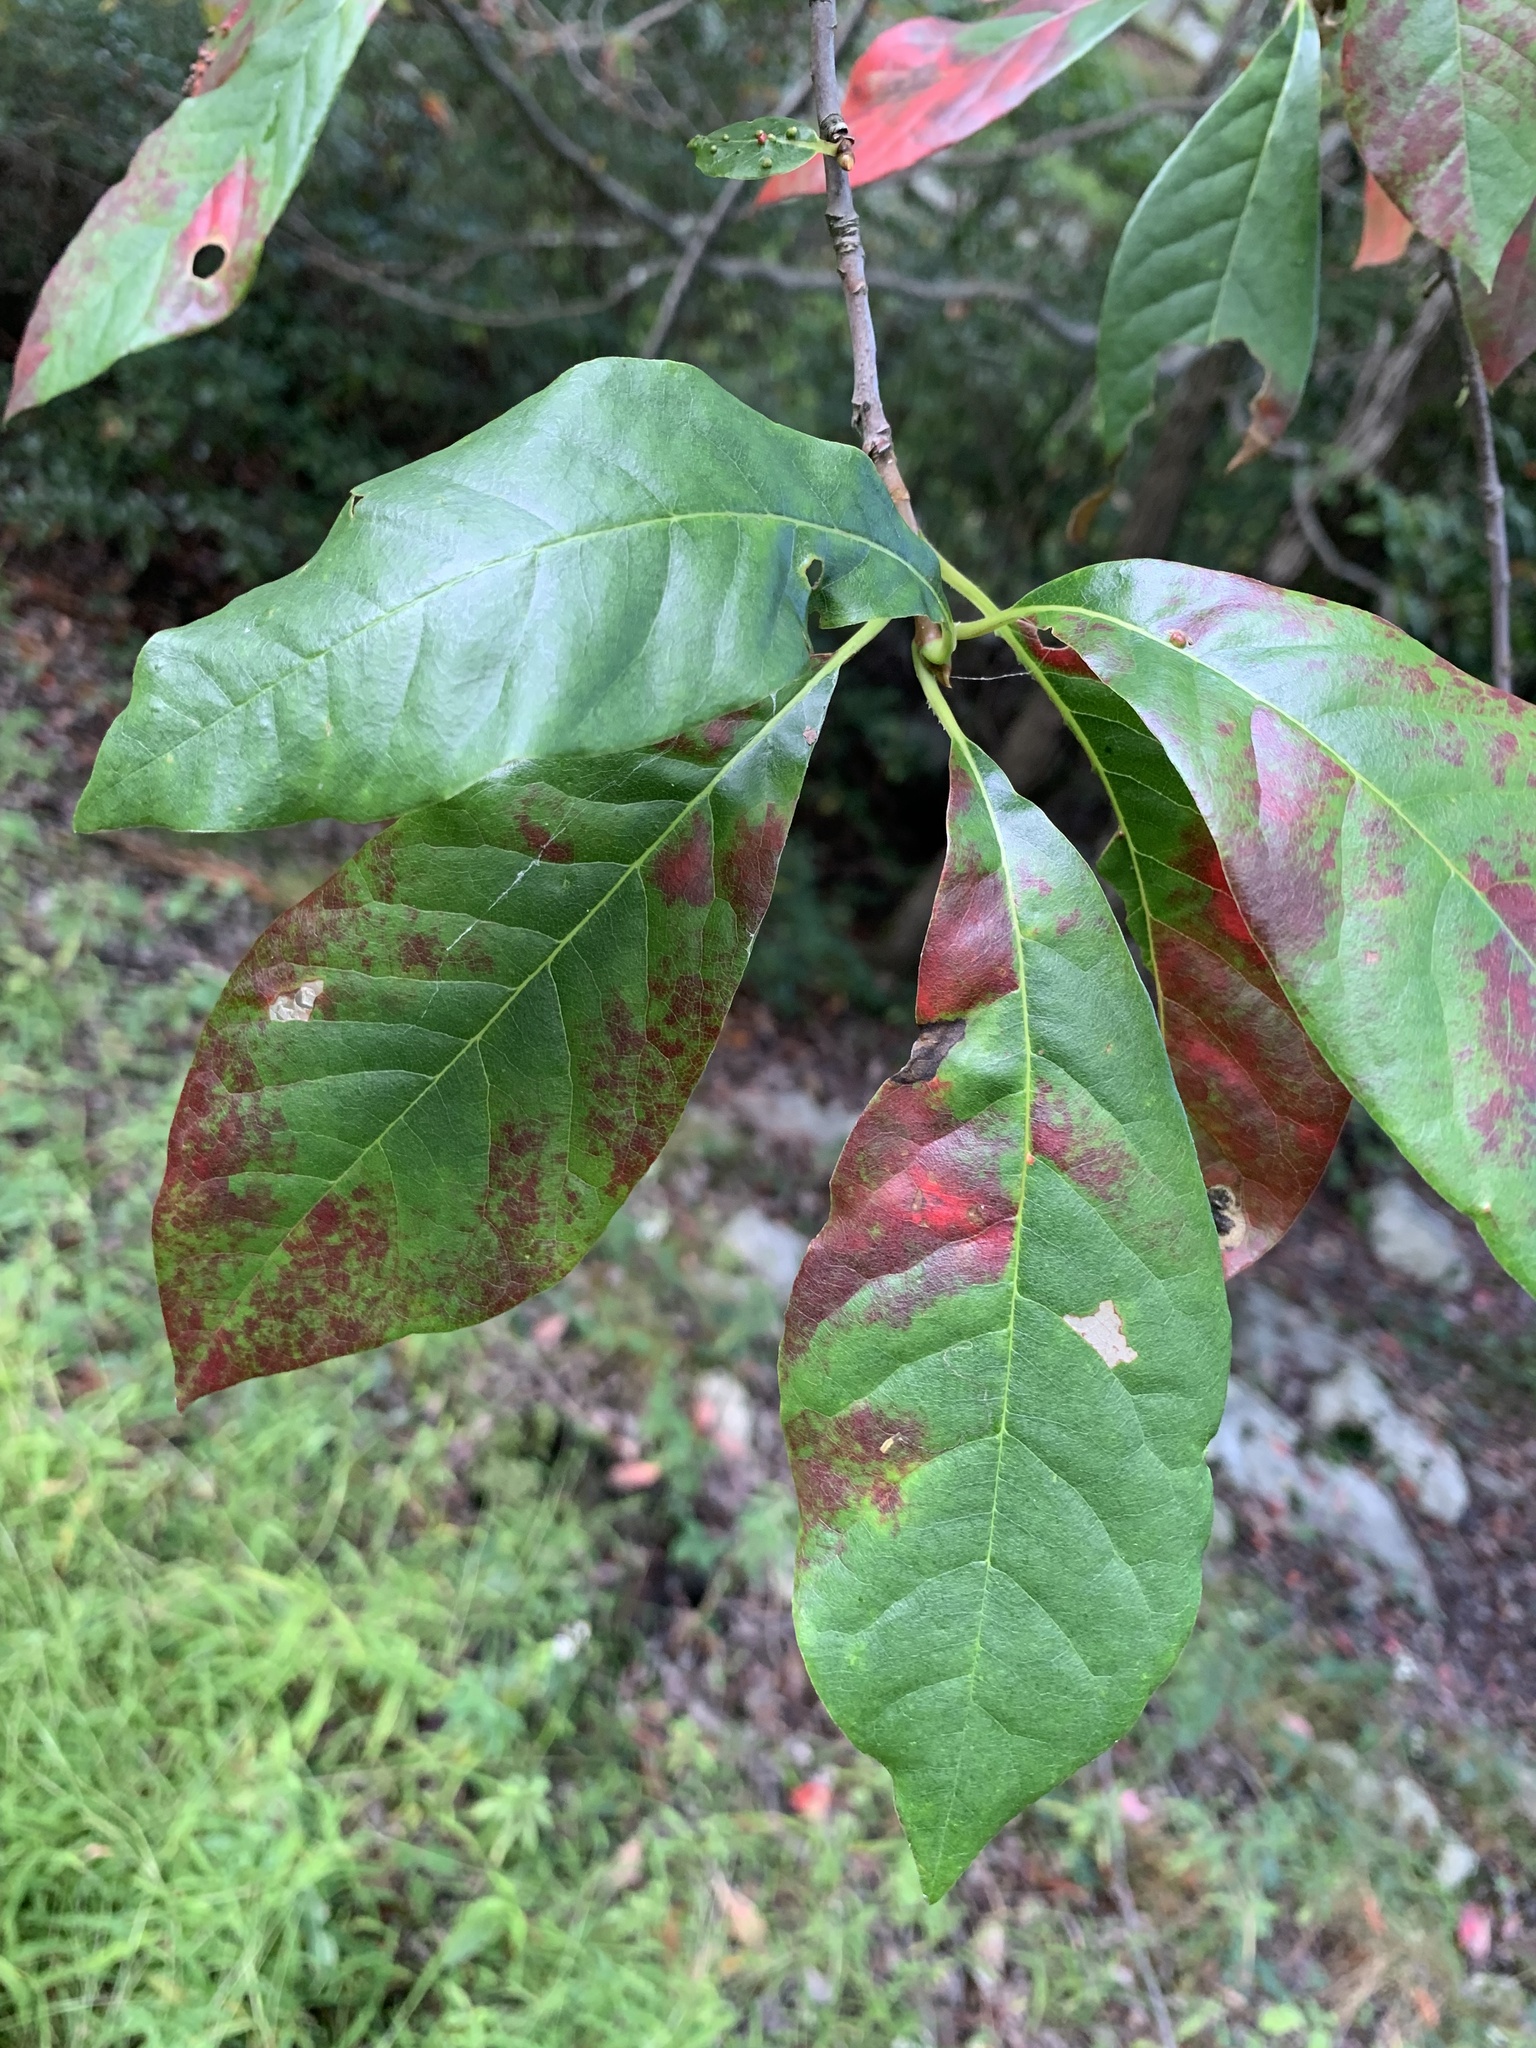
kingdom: Plantae
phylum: Tracheophyta
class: Magnoliopsida
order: Cornales
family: Nyssaceae
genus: Nyssa
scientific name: Nyssa sylvatica
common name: Black tupelo
